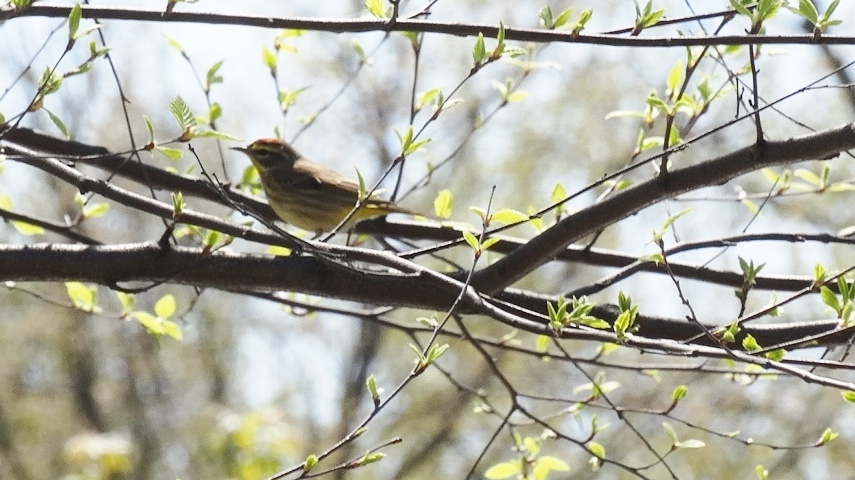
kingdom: Animalia
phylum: Chordata
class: Aves
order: Passeriformes
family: Parulidae
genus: Setophaga
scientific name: Setophaga palmarum
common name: Palm warbler
